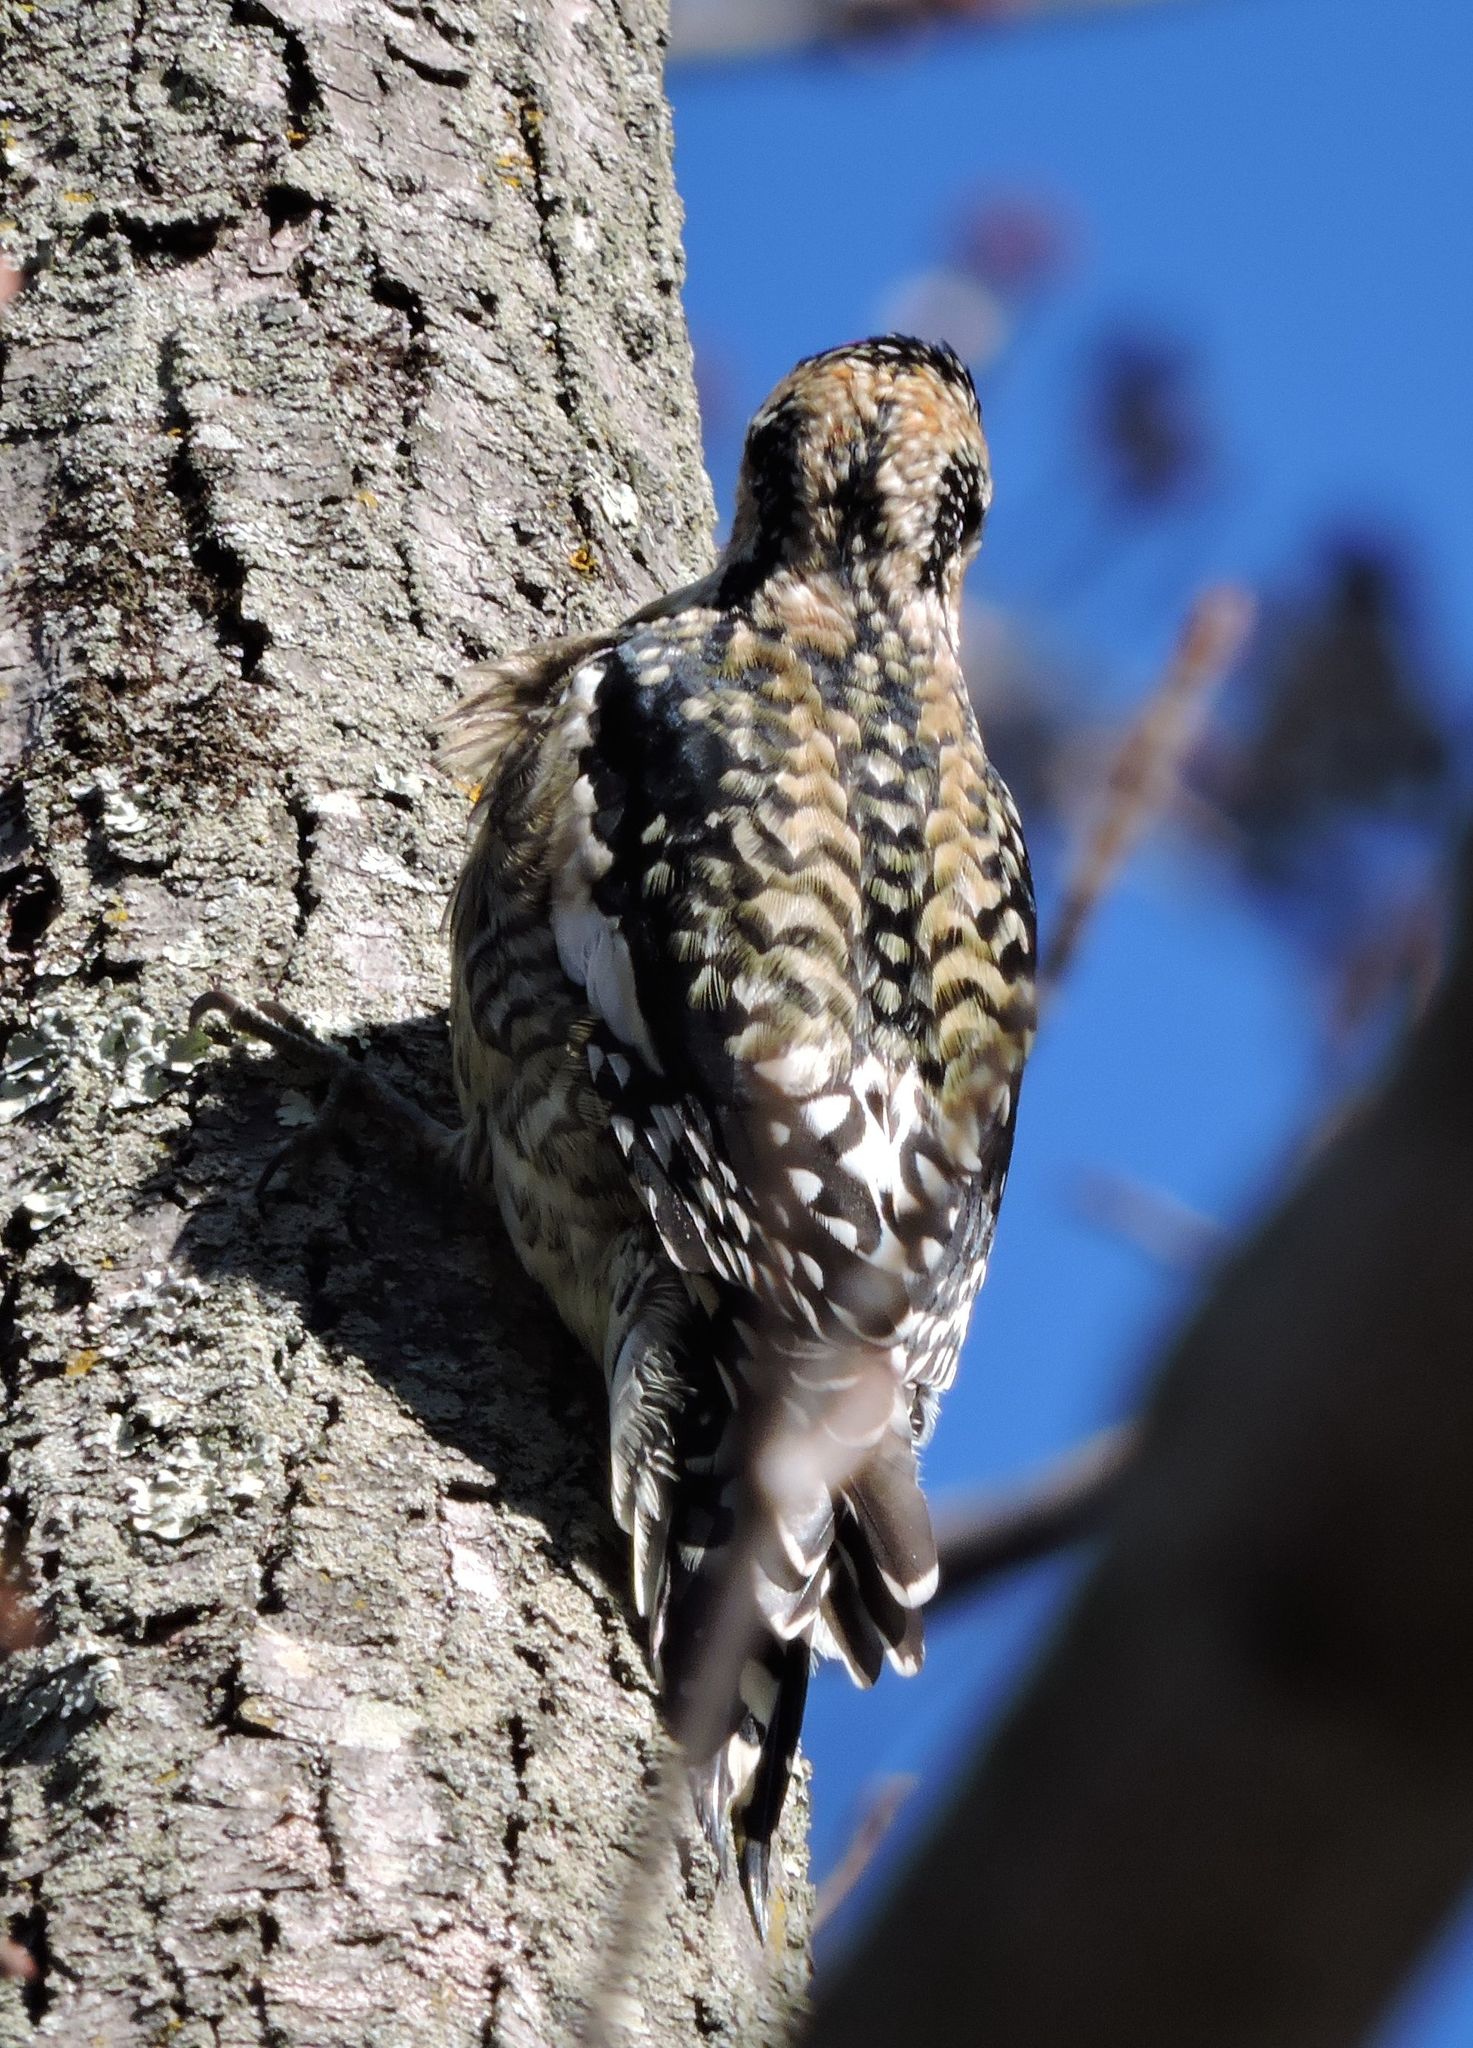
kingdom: Animalia
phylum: Chordata
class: Aves
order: Piciformes
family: Picidae
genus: Sphyrapicus
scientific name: Sphyrapicus varius
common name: Yellow-bellied sapsucker
